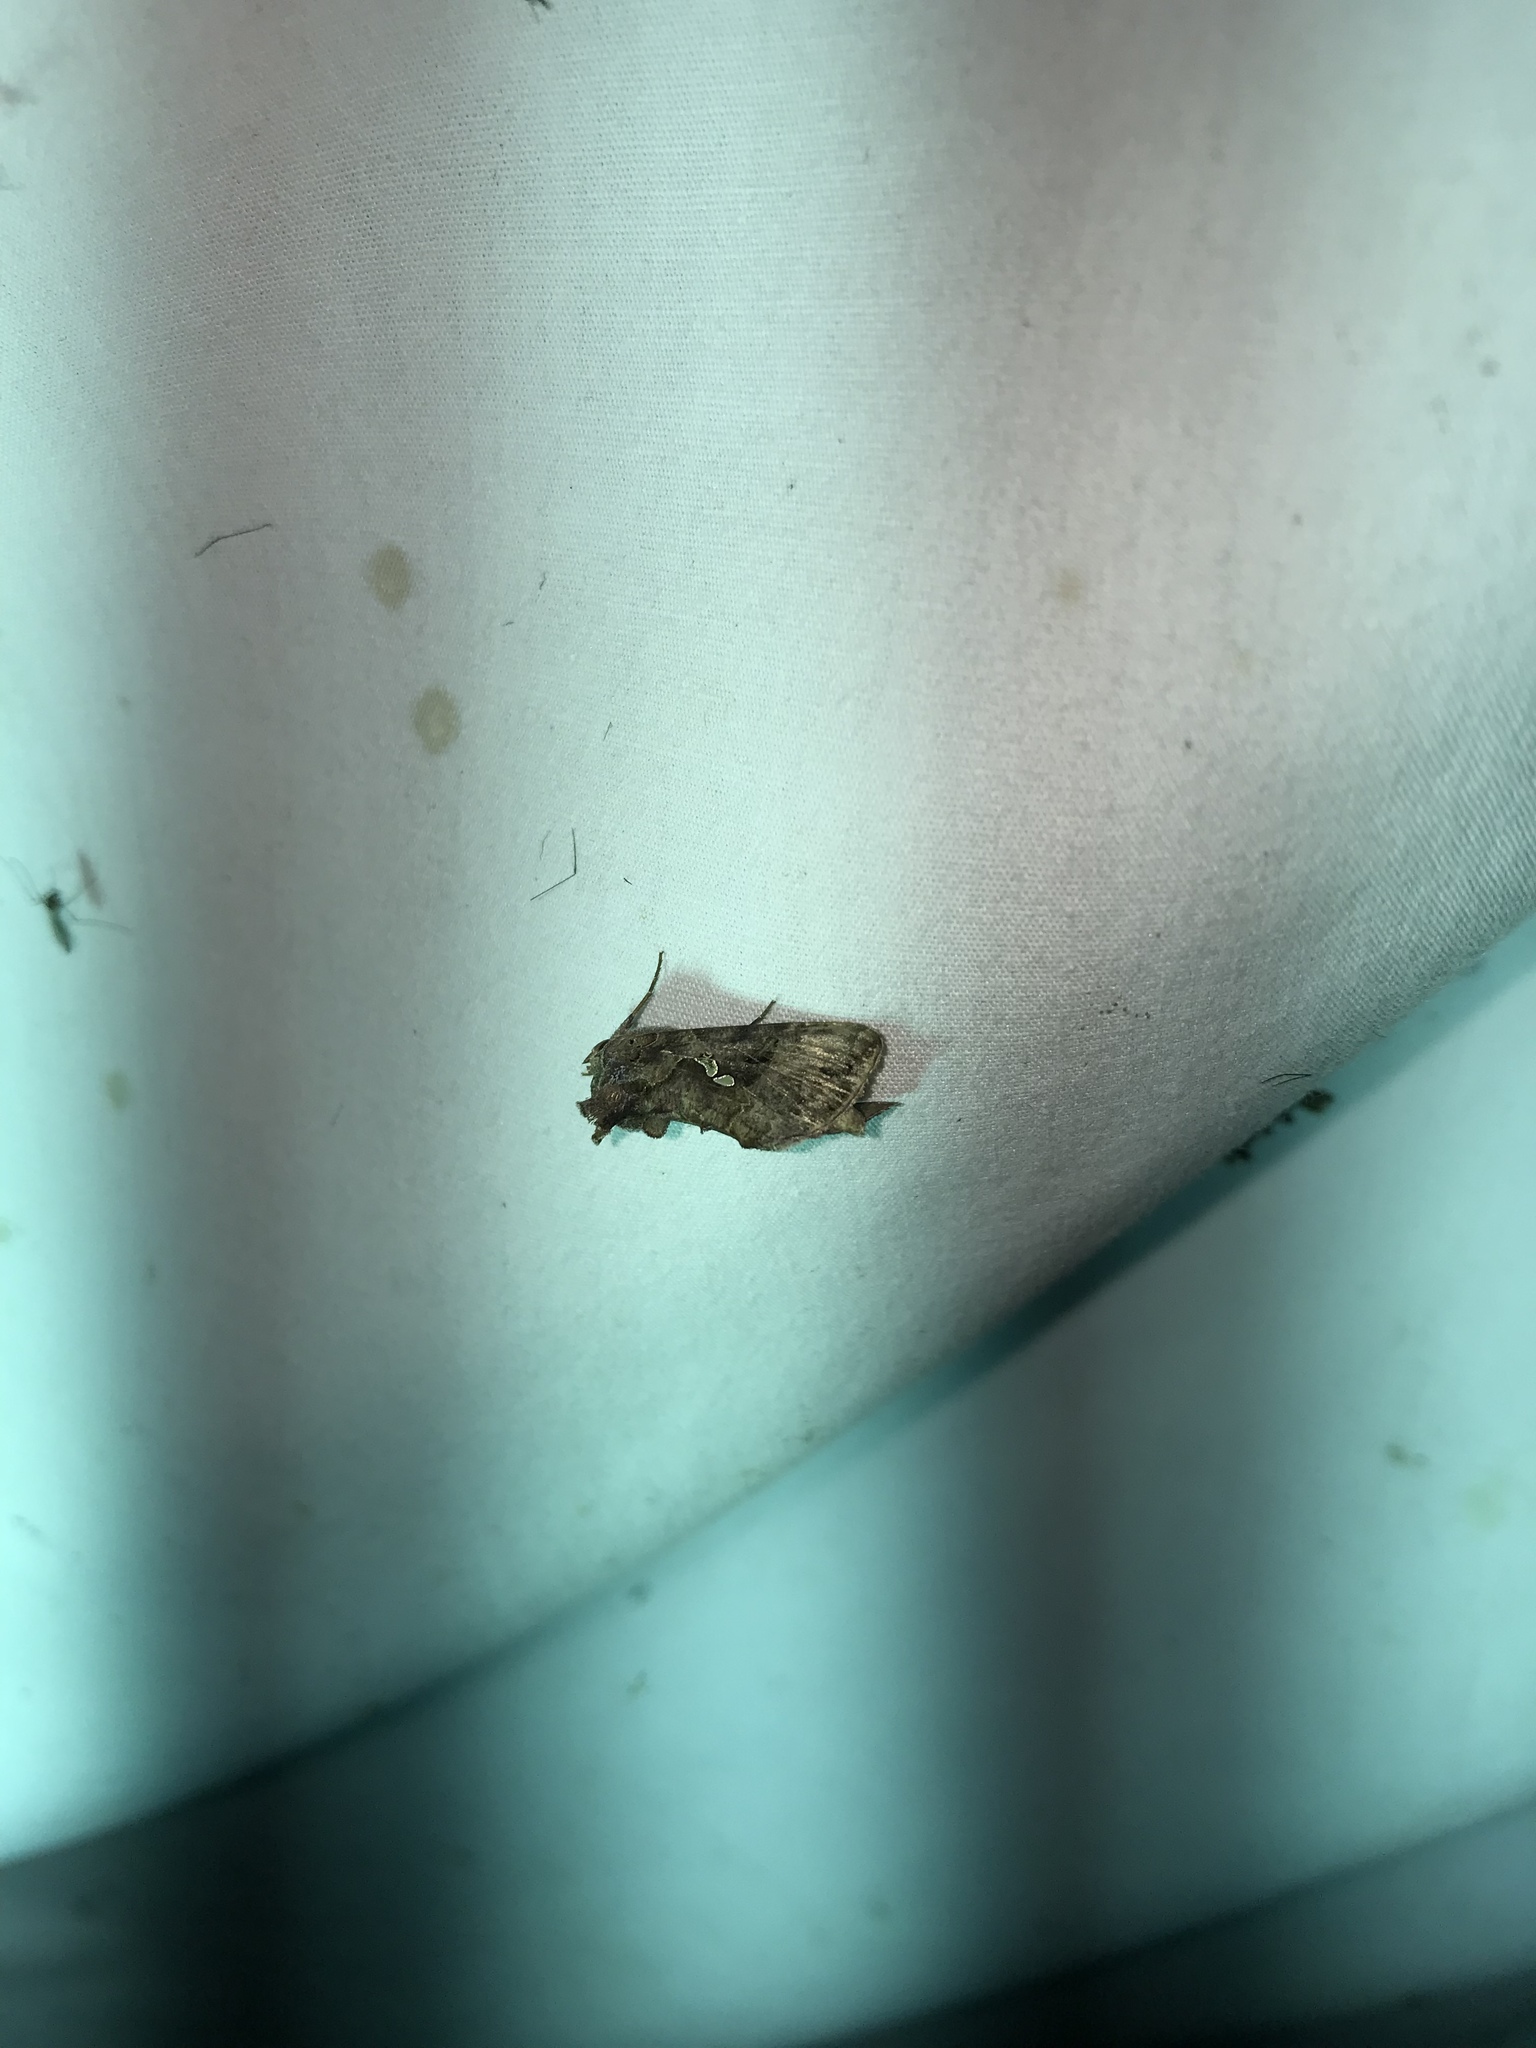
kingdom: Animalia
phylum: Arthropoda
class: Insecta
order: Lepidoptera
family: Noctuidae
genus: Autographa
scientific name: Autographa precationis
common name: Common looper moth
